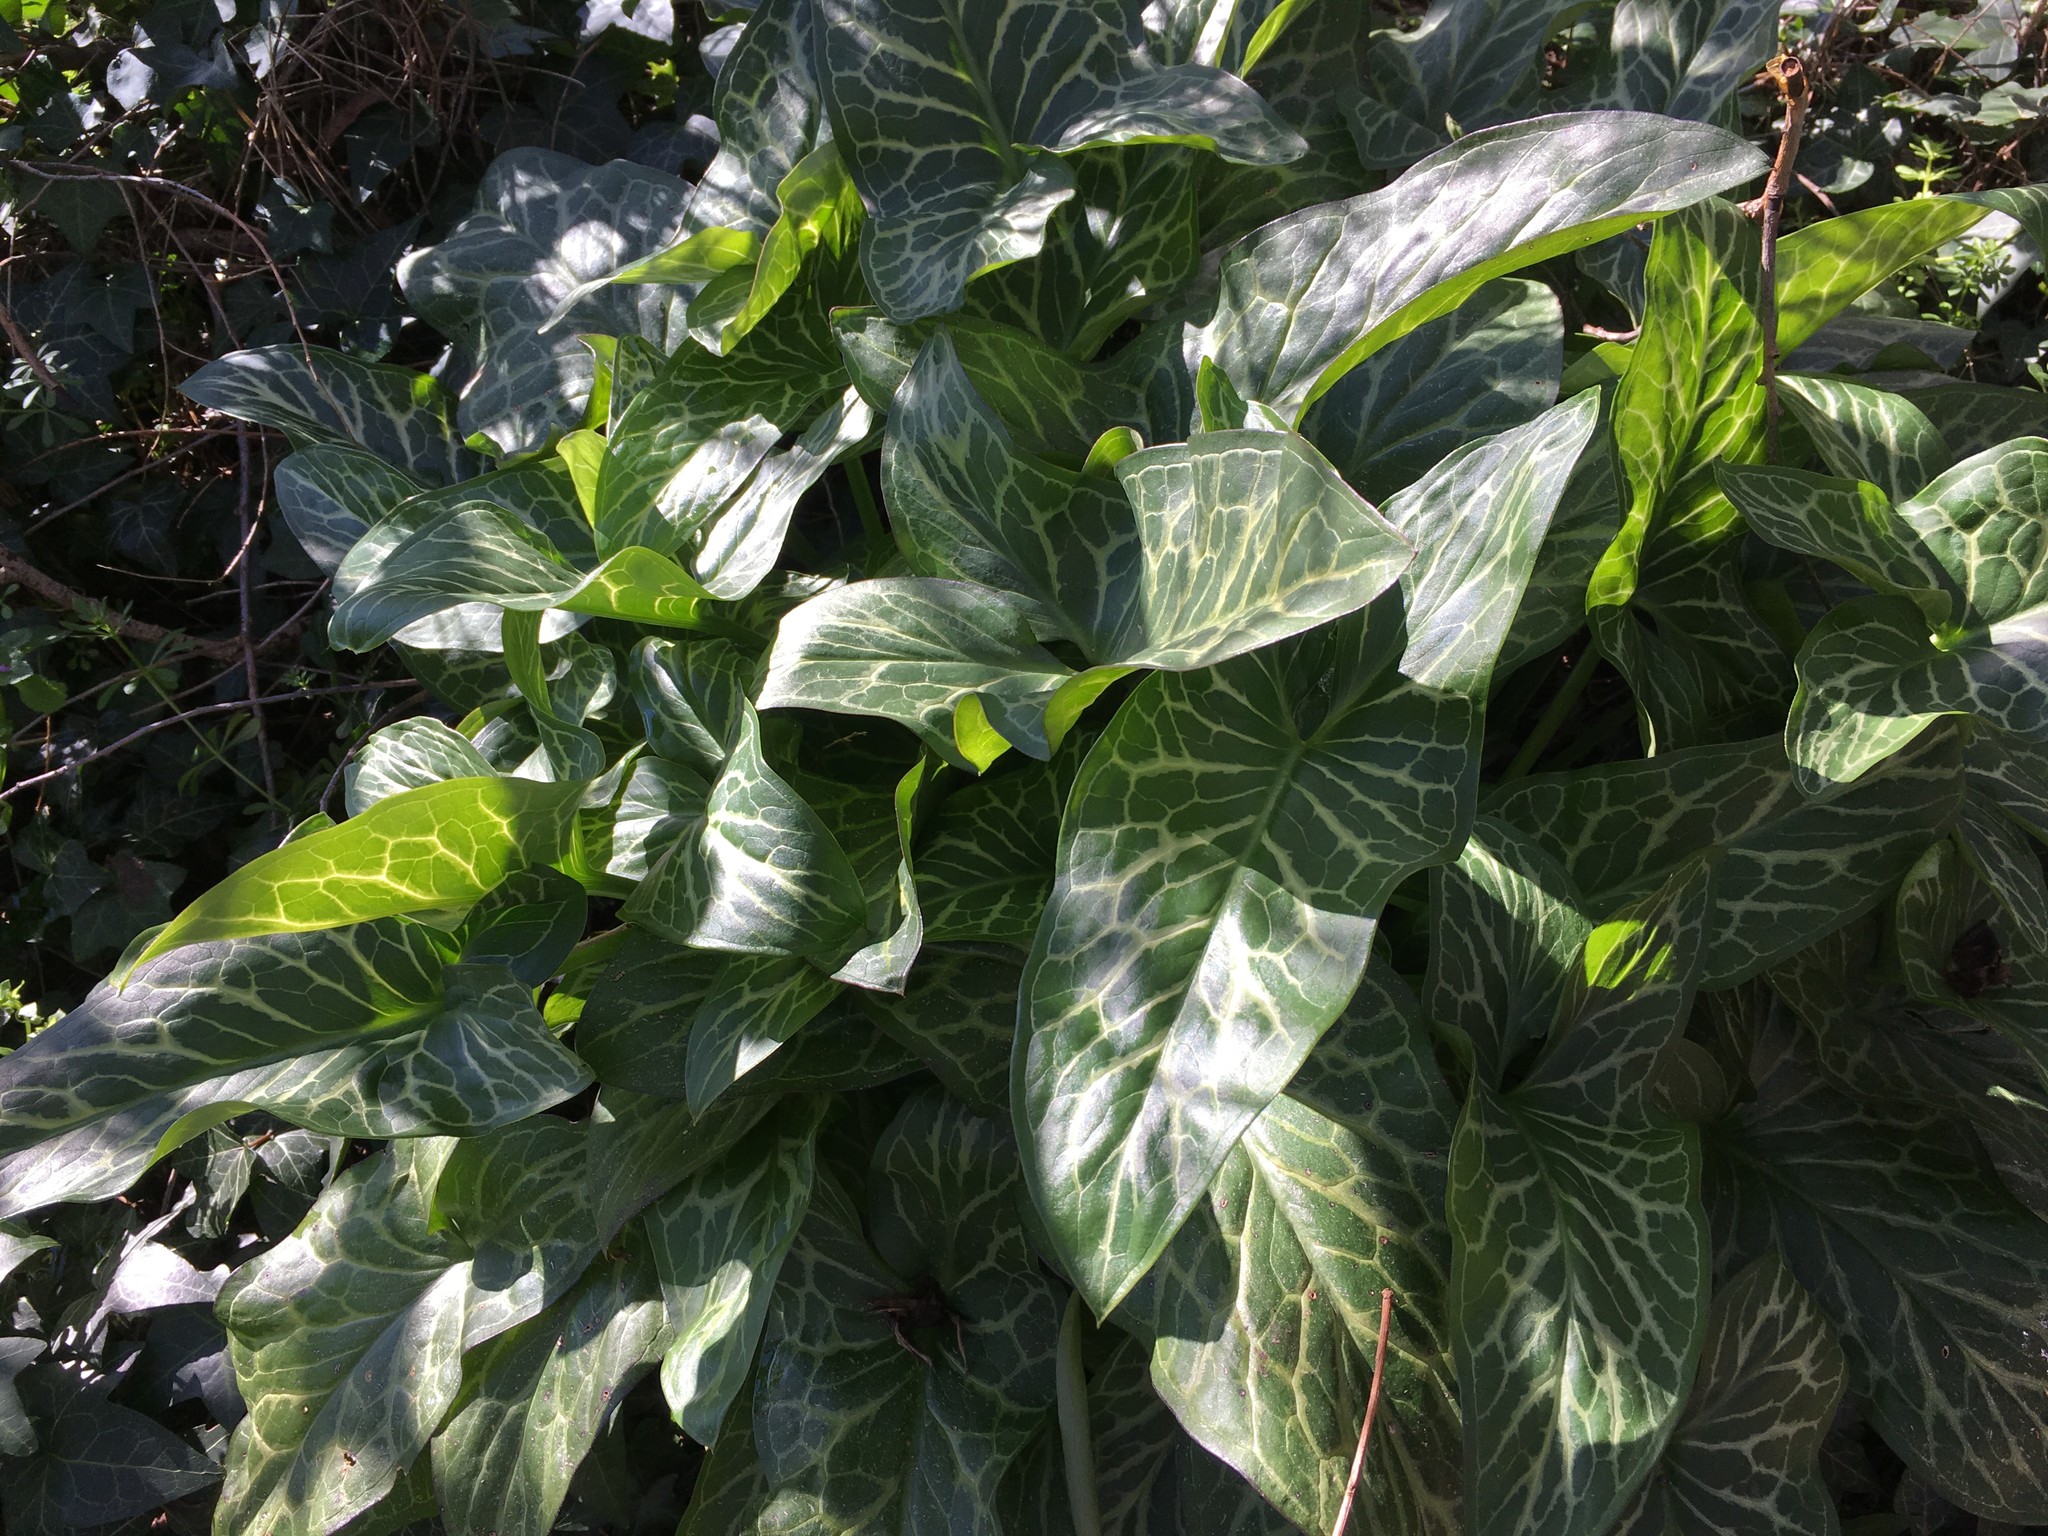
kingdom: Plantae
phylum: Tracheophyta
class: Liliopsida
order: Alismatales
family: Araceae
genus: Arum
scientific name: Arum italicum
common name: Italian lords-and-ladies
